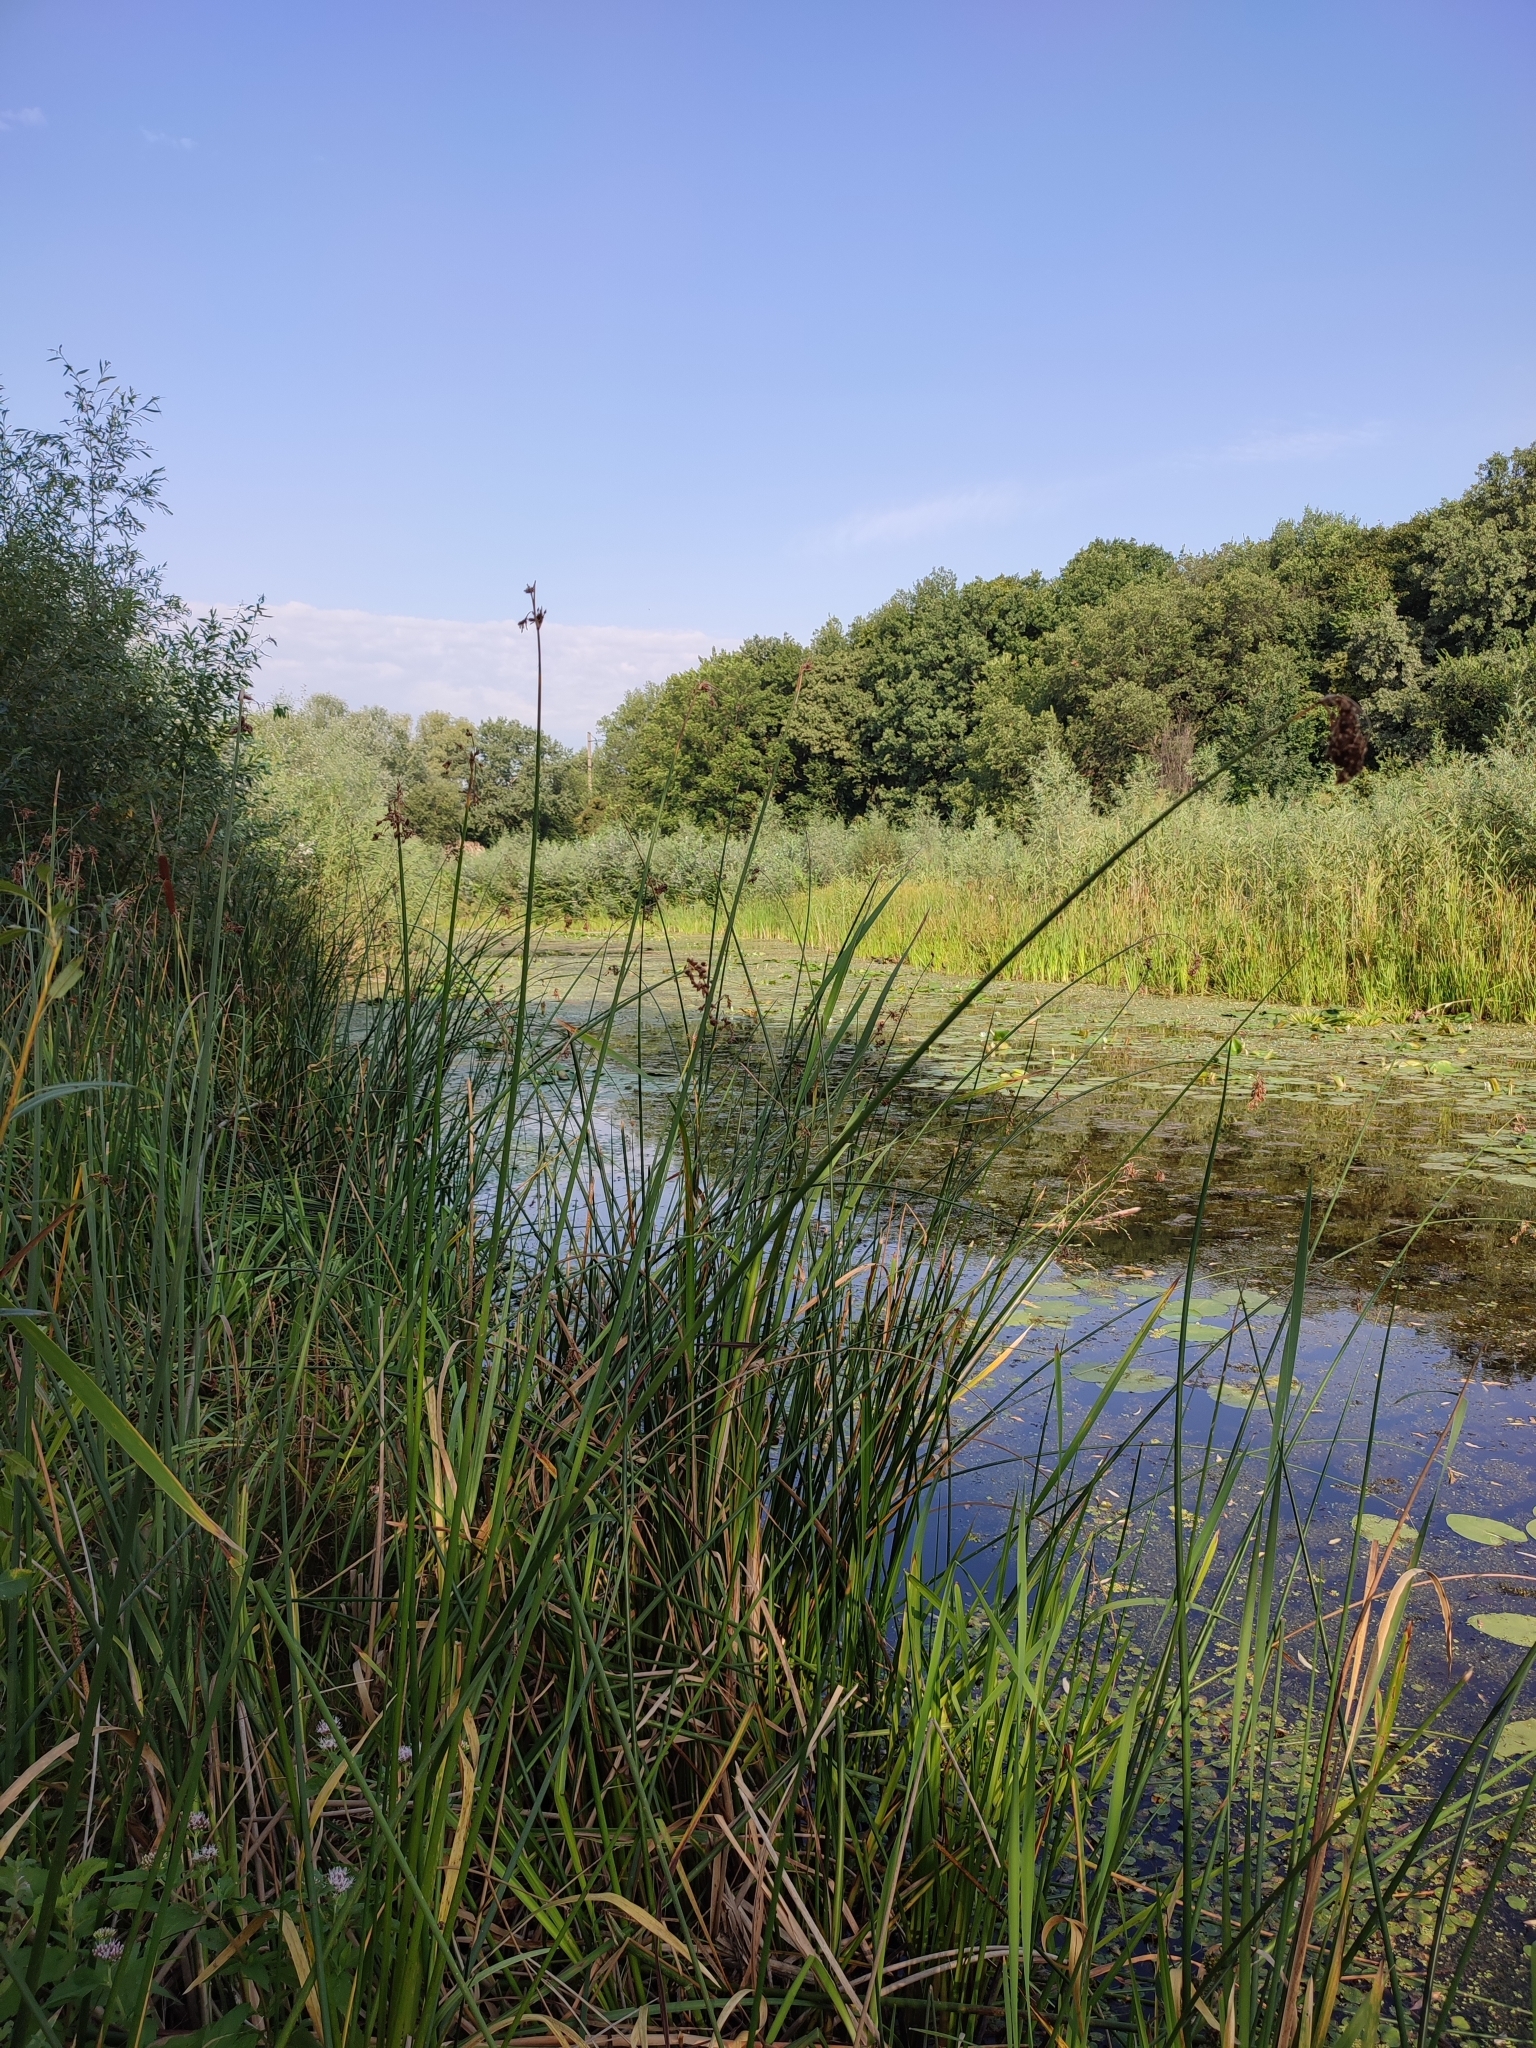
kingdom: Plantae
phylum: Tracheophyta
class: Liliopsida
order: Poales
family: Cyperaceae
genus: Schoenoplectus
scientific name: Schoenoplectus lacustris
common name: Common club-rush
